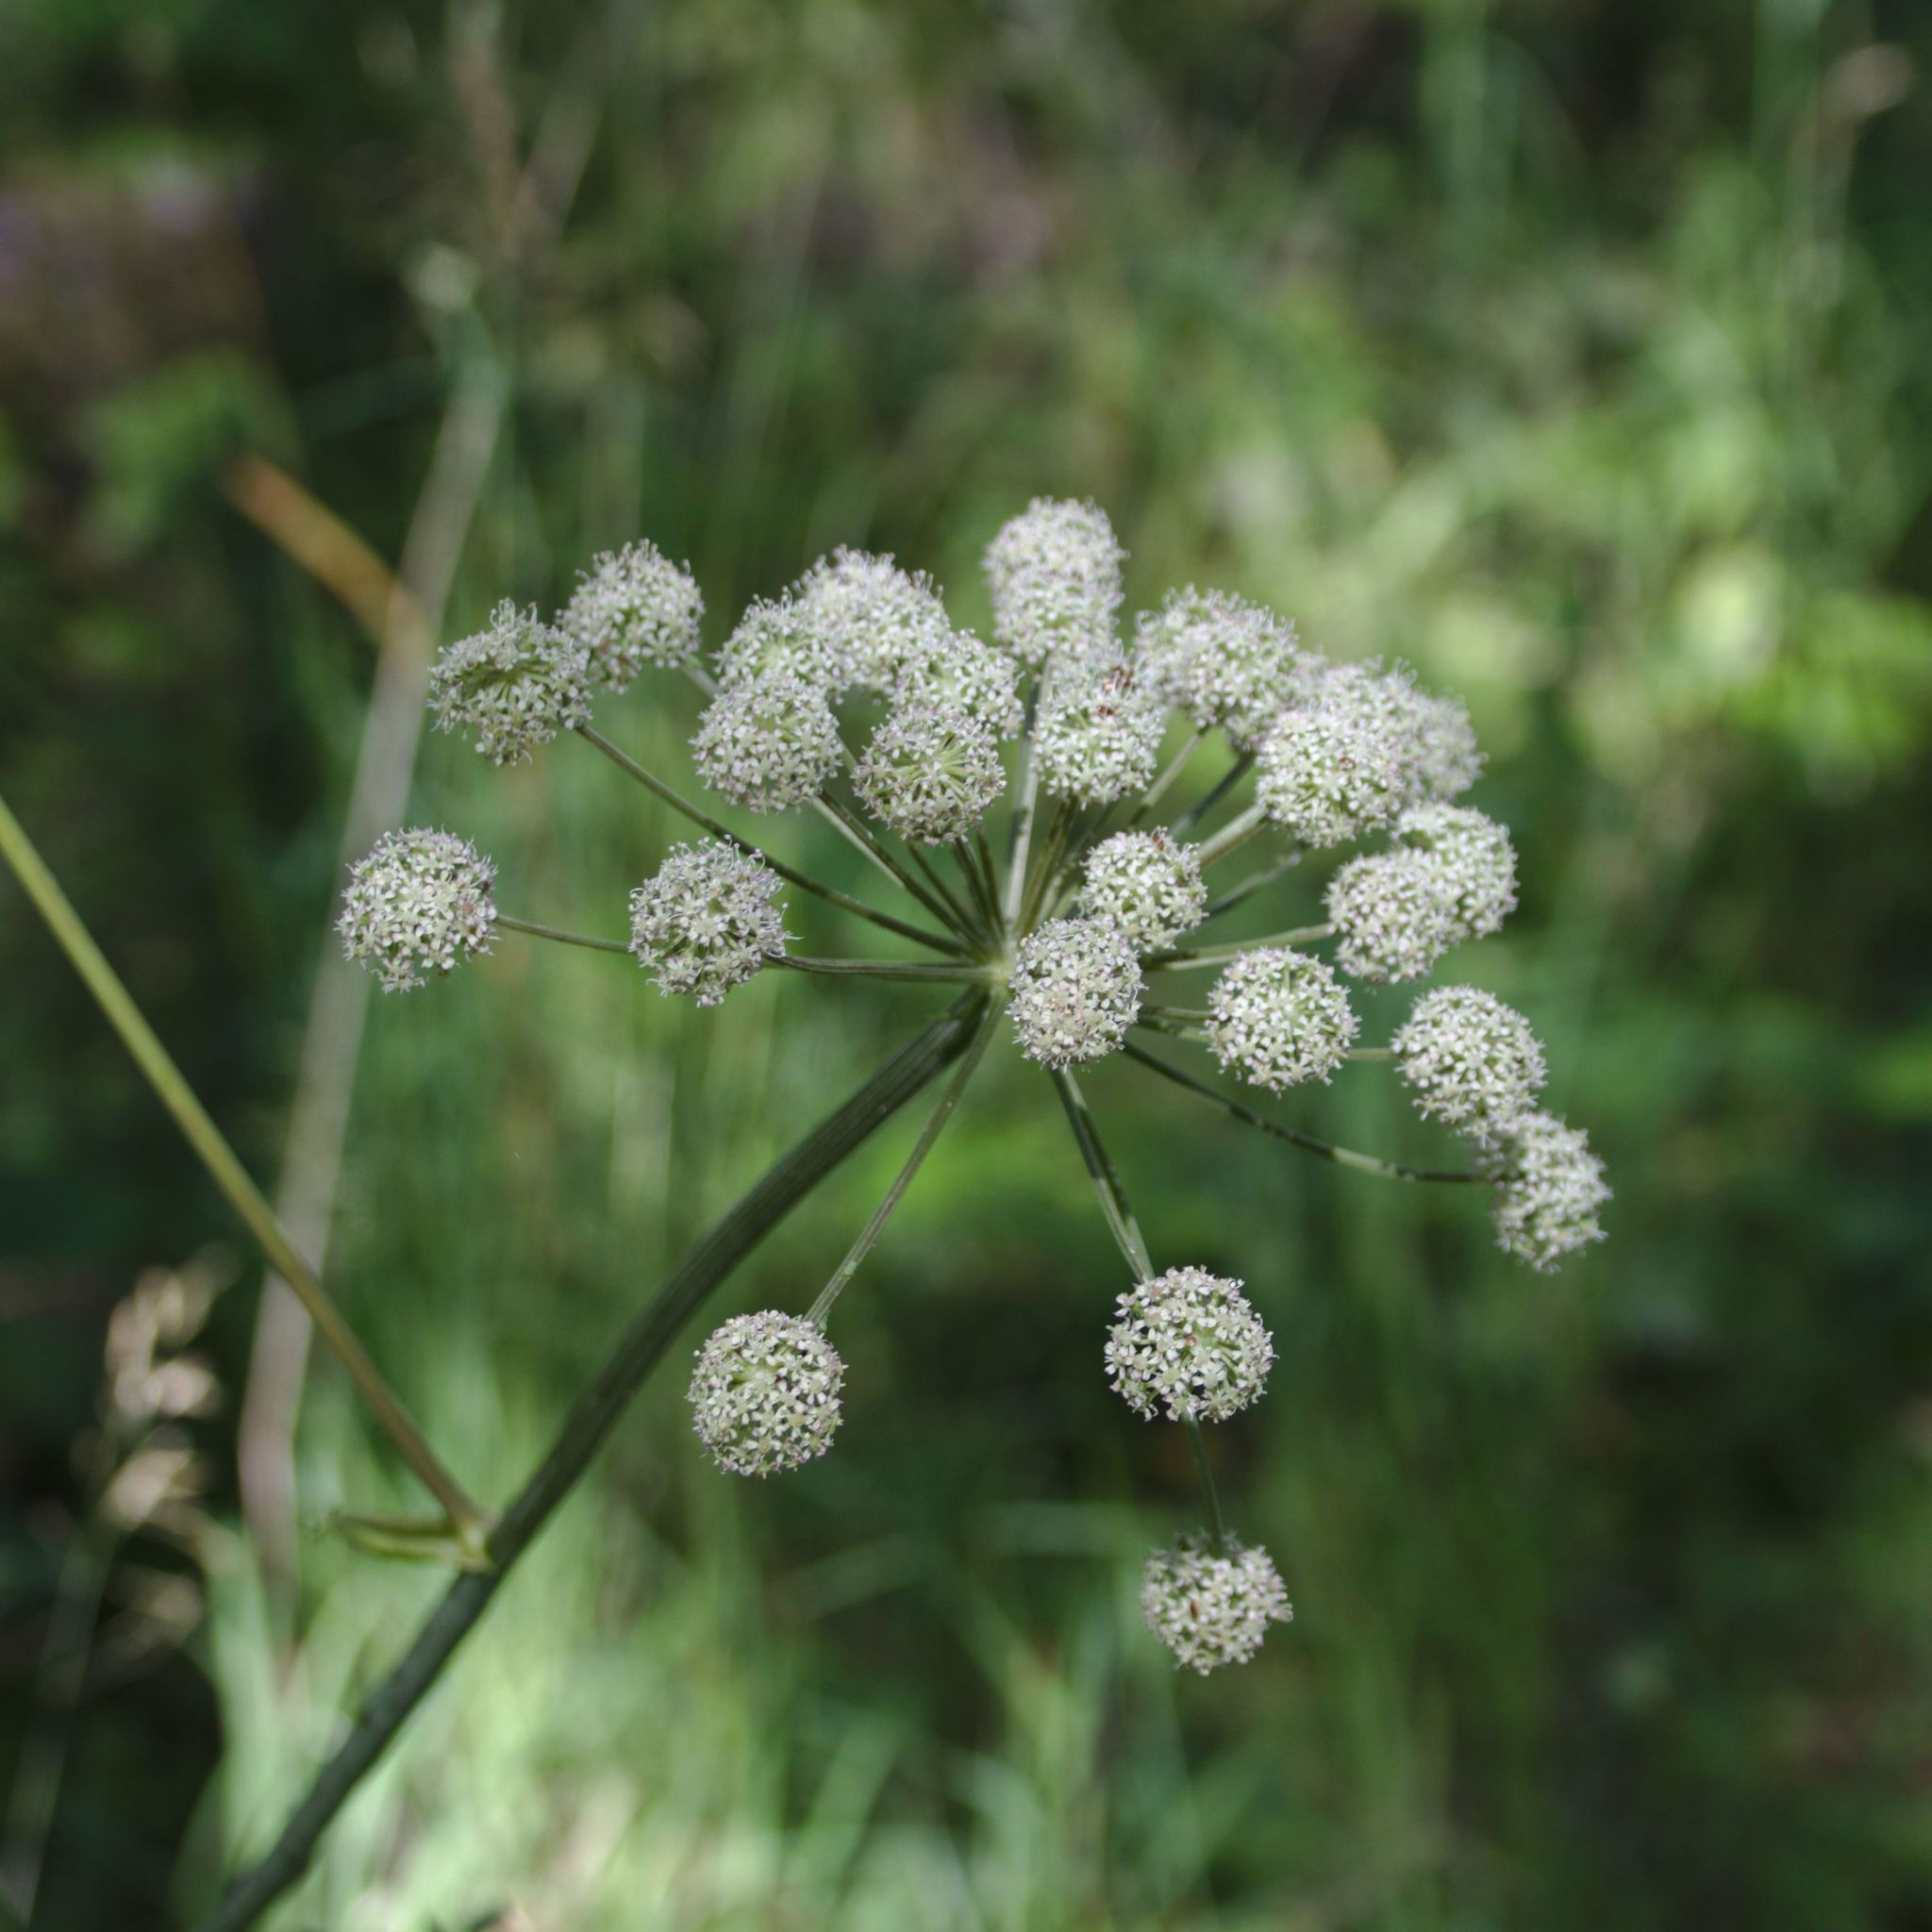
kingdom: Plantae
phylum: Tracheophyta
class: Magnoliopsida
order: Apiales
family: Apiaceae
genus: Angelica
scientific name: Angelica sylvestris
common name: Wild angelica
